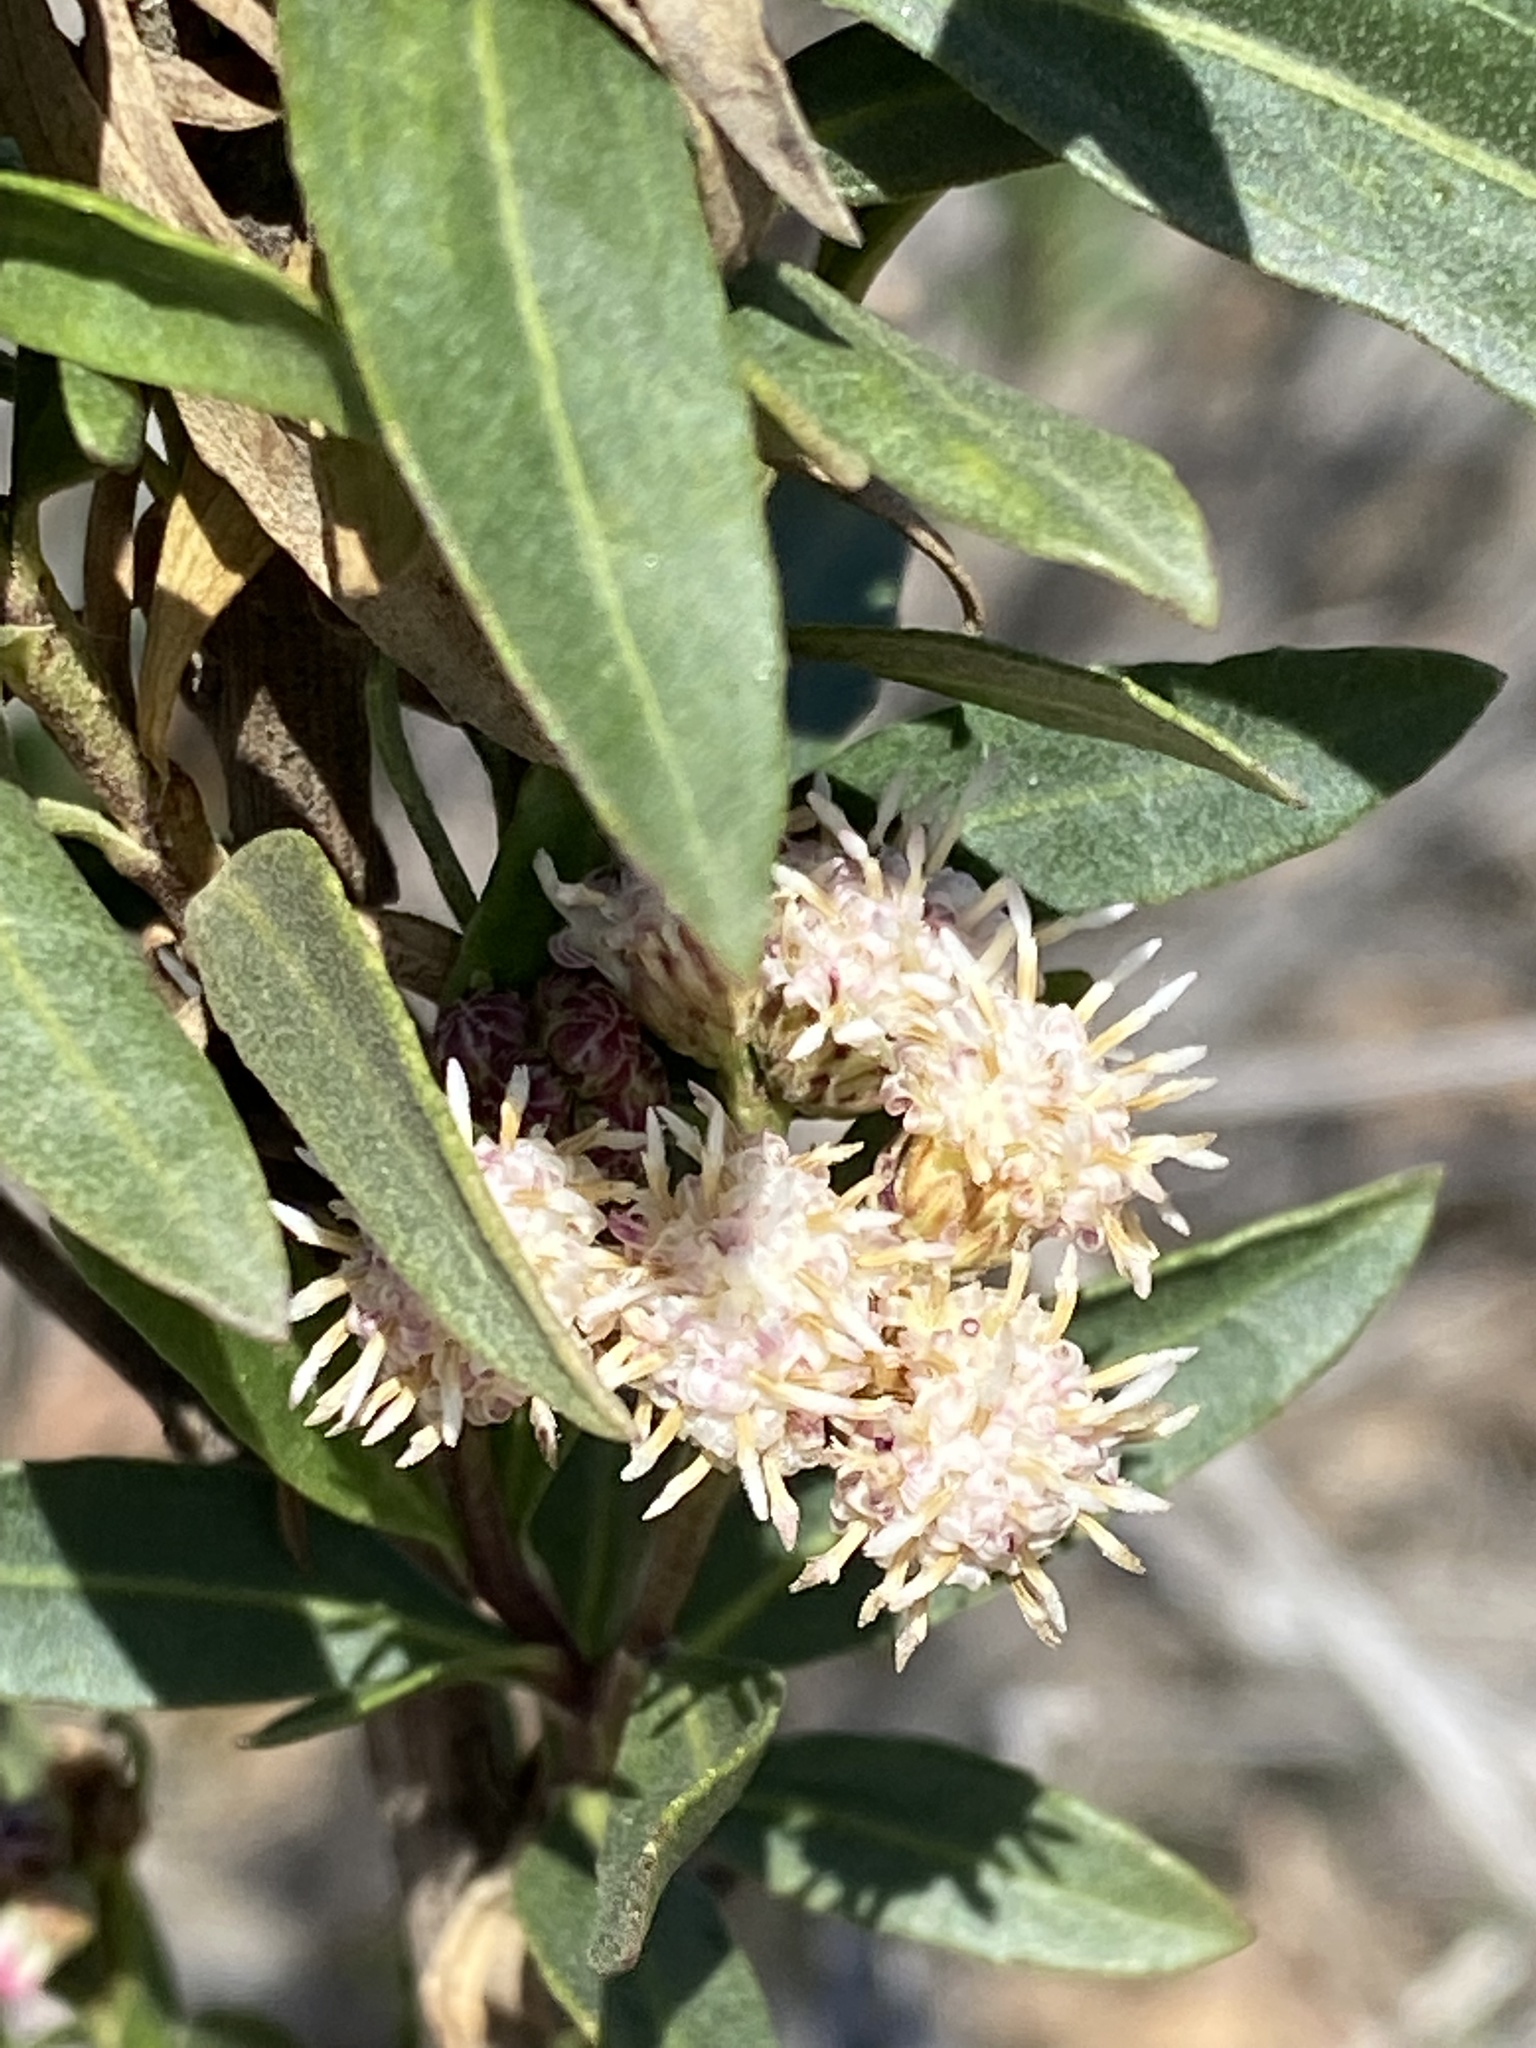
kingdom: Plantae
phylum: Tracheophyta
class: Magnoliopsida
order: Asterales
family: Asteraceae
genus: Baccharis
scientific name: Baccharis salicifolia
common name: Sticky baccharis
